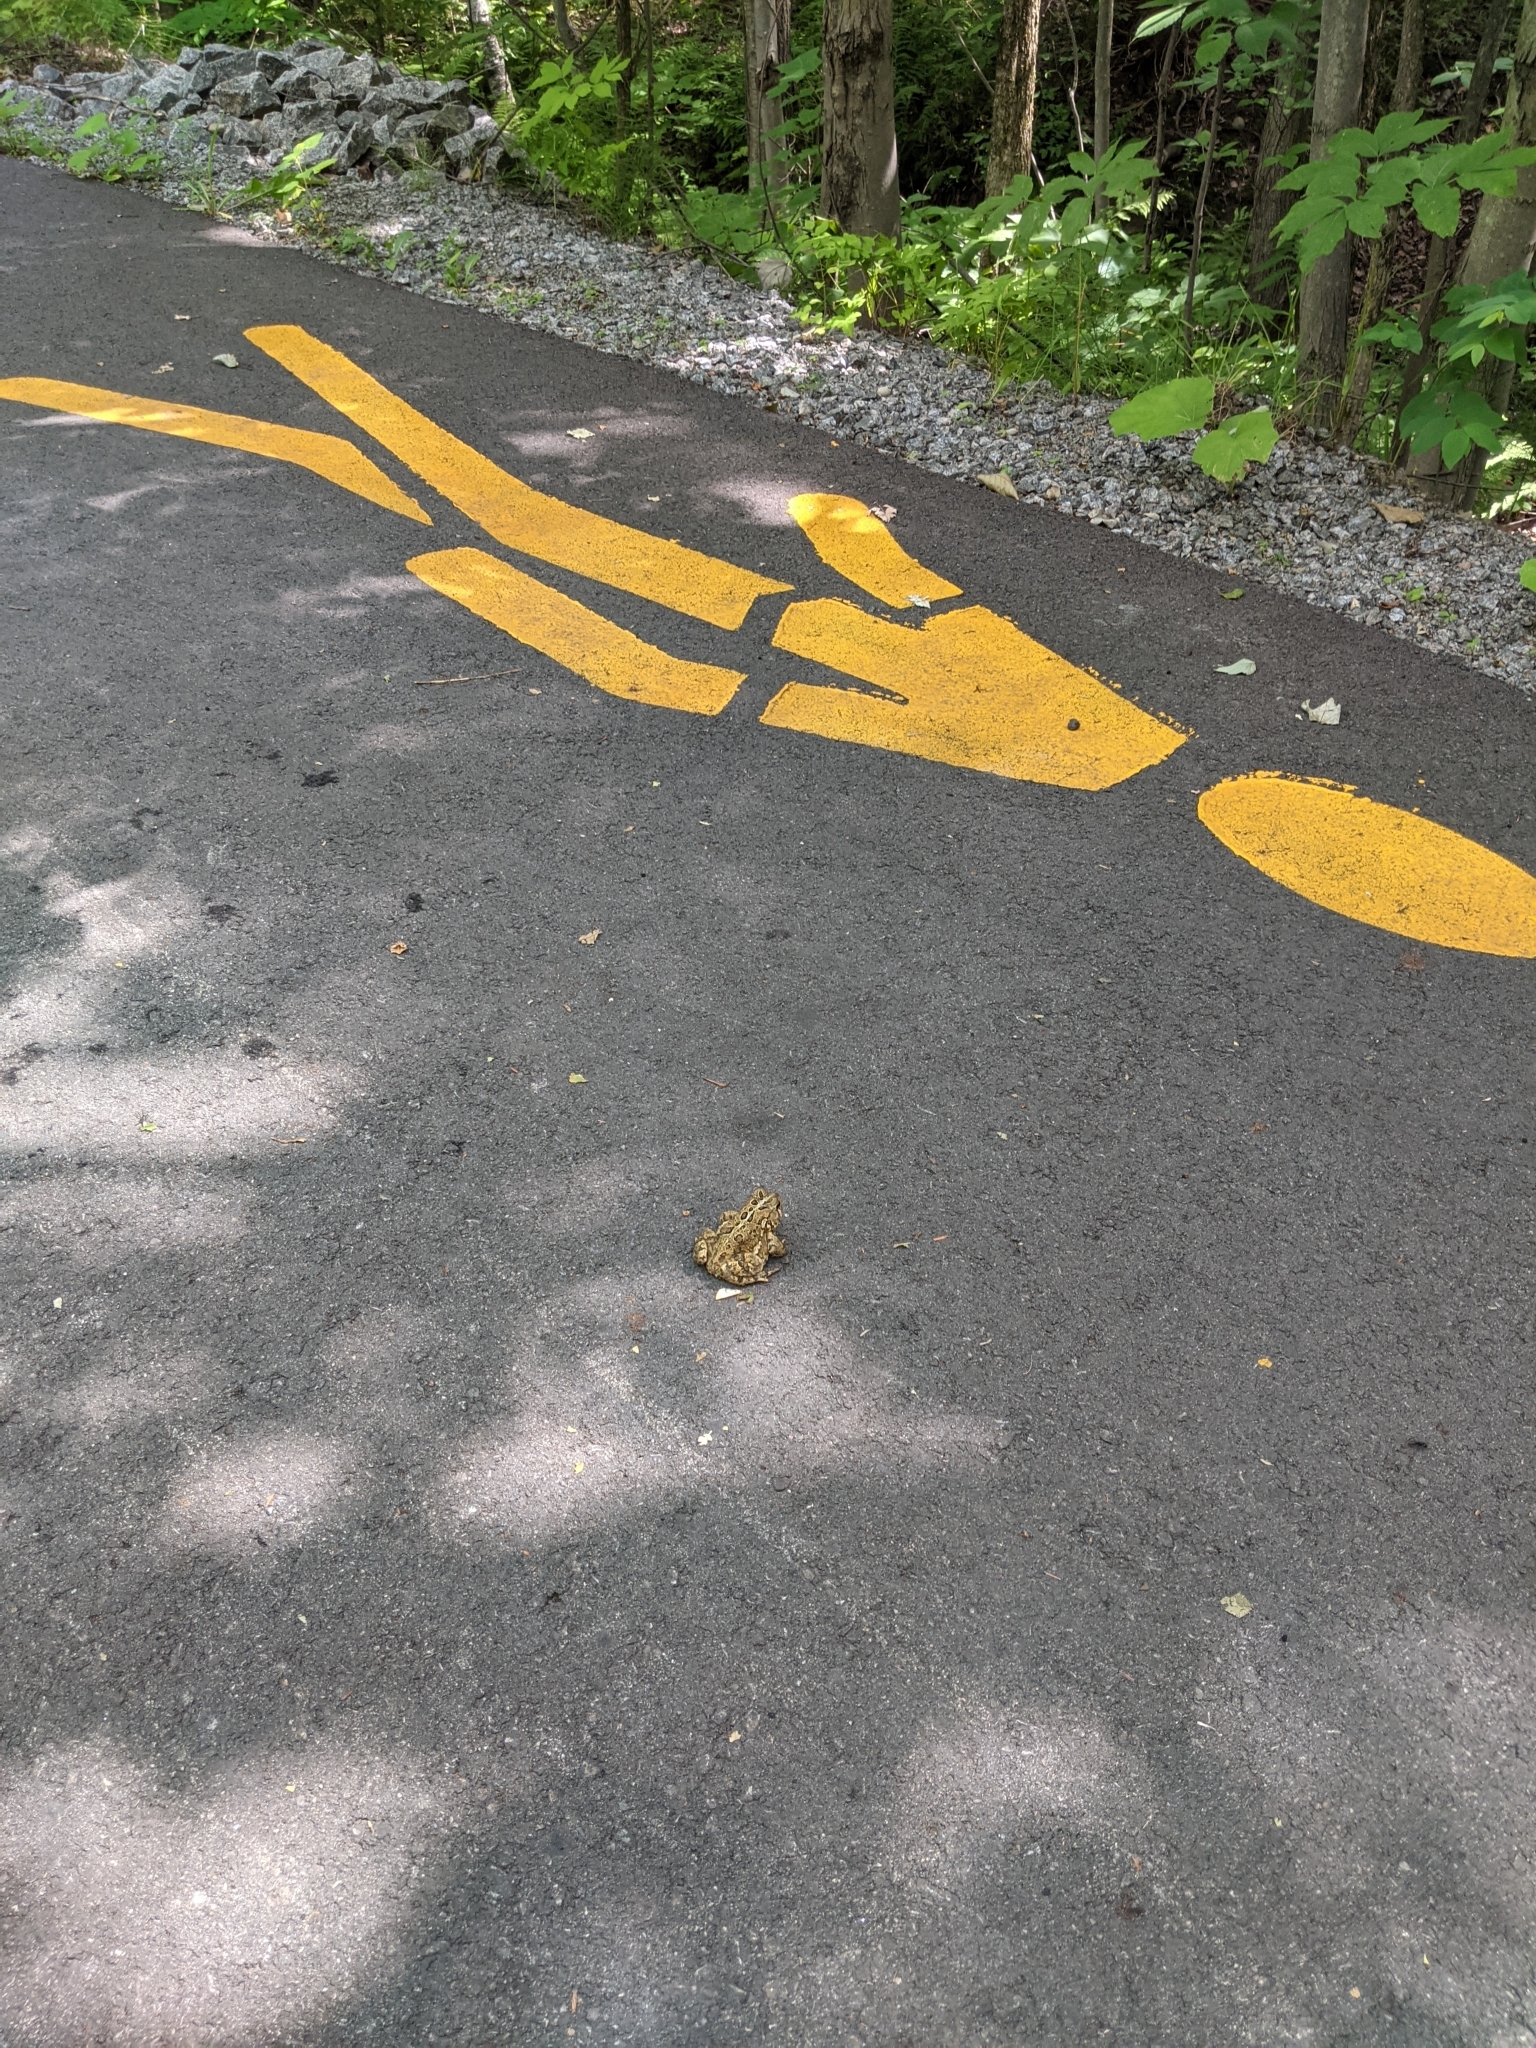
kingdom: Animalia
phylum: Chordata
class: Amphibia
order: Anura
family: Bufonidae
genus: Anaxyrus
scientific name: Anaxyrus americanus
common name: American toad
